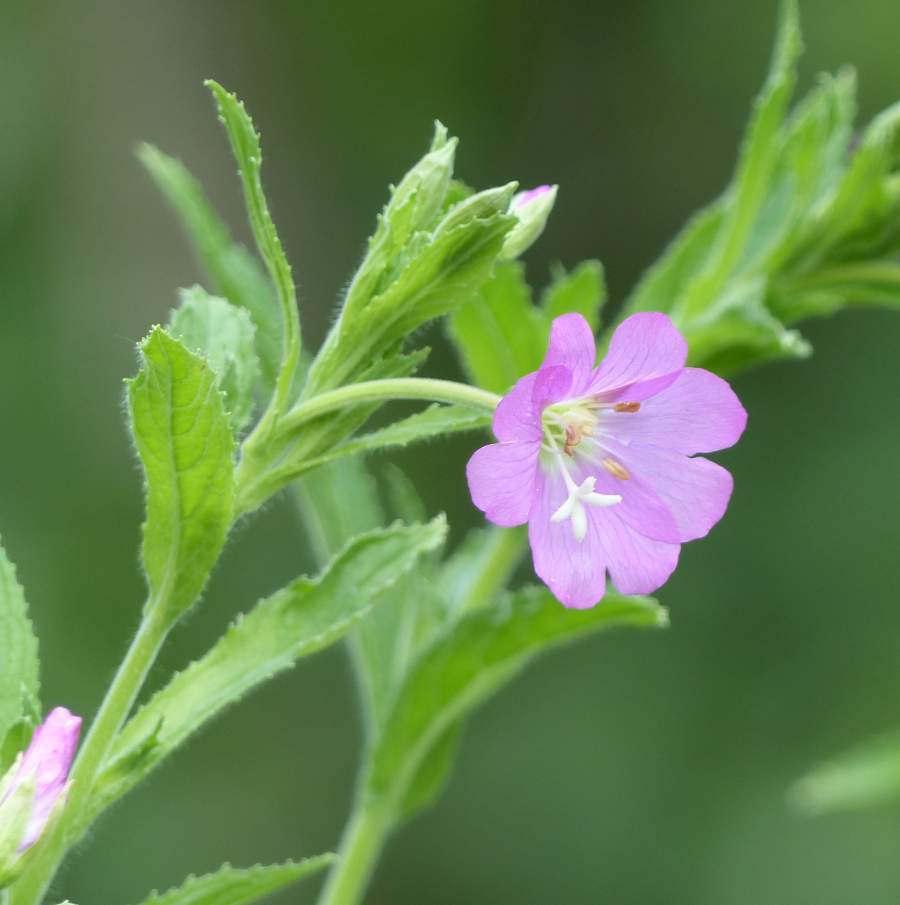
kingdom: Plantae
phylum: Tracheophyta
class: Magnoliopsida
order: Myrtales
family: Onagraceae
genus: Epilobium
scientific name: Epilobium hirsutum
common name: Great willowherb
